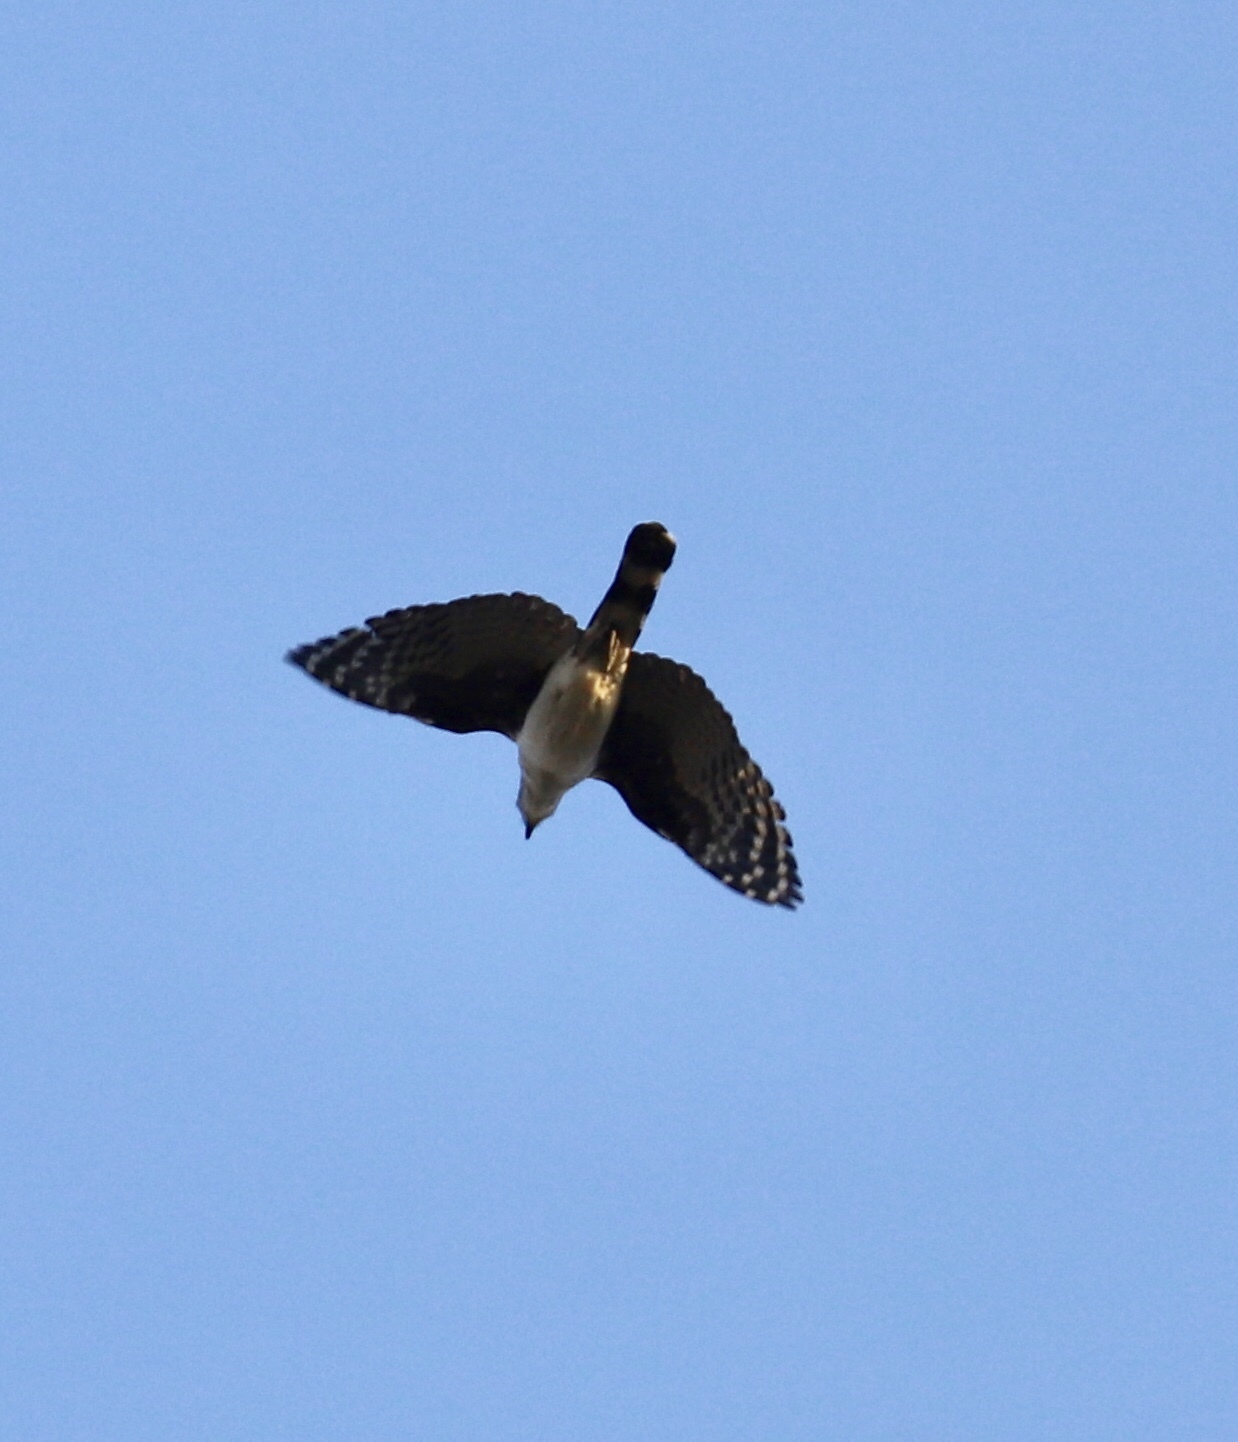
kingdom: Animalia
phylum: Chordata
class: Aves
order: Accipitriformes
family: Accipitridae
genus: Leptodon
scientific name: Leptodon cayanensis
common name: Gray-headed kite
